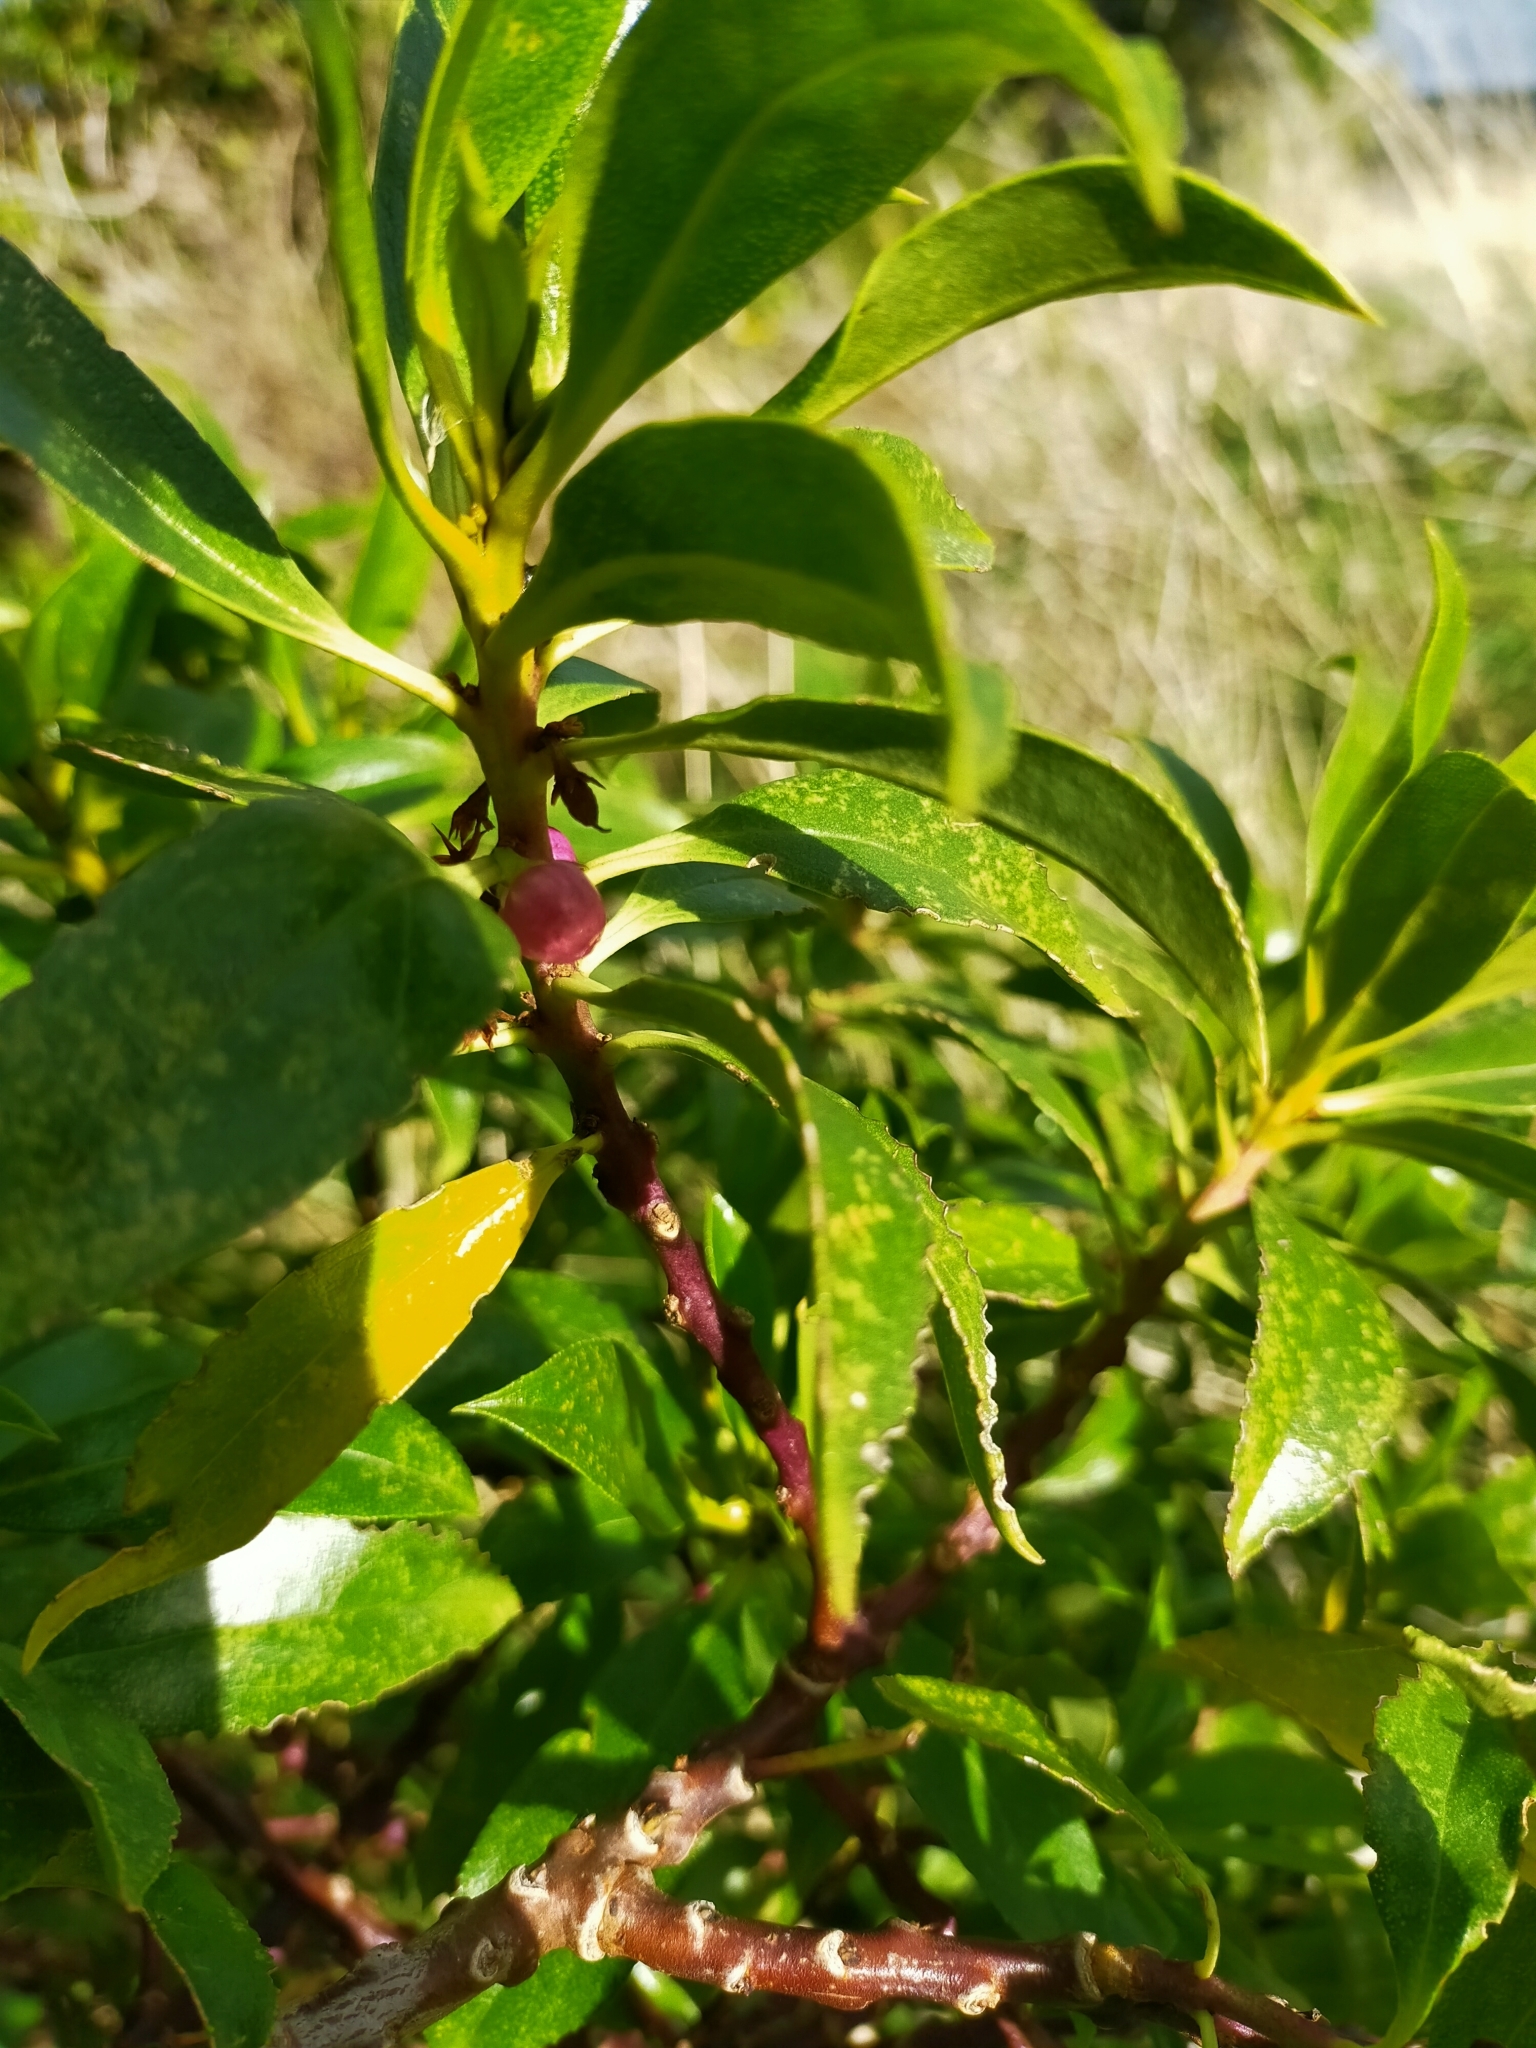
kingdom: Plantae
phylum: Tracheophyta
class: Magnoliopsida
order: Lamiales
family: Scrophulariaceae
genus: Myoporum
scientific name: Myoporum laetum
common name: Ngaio tree
